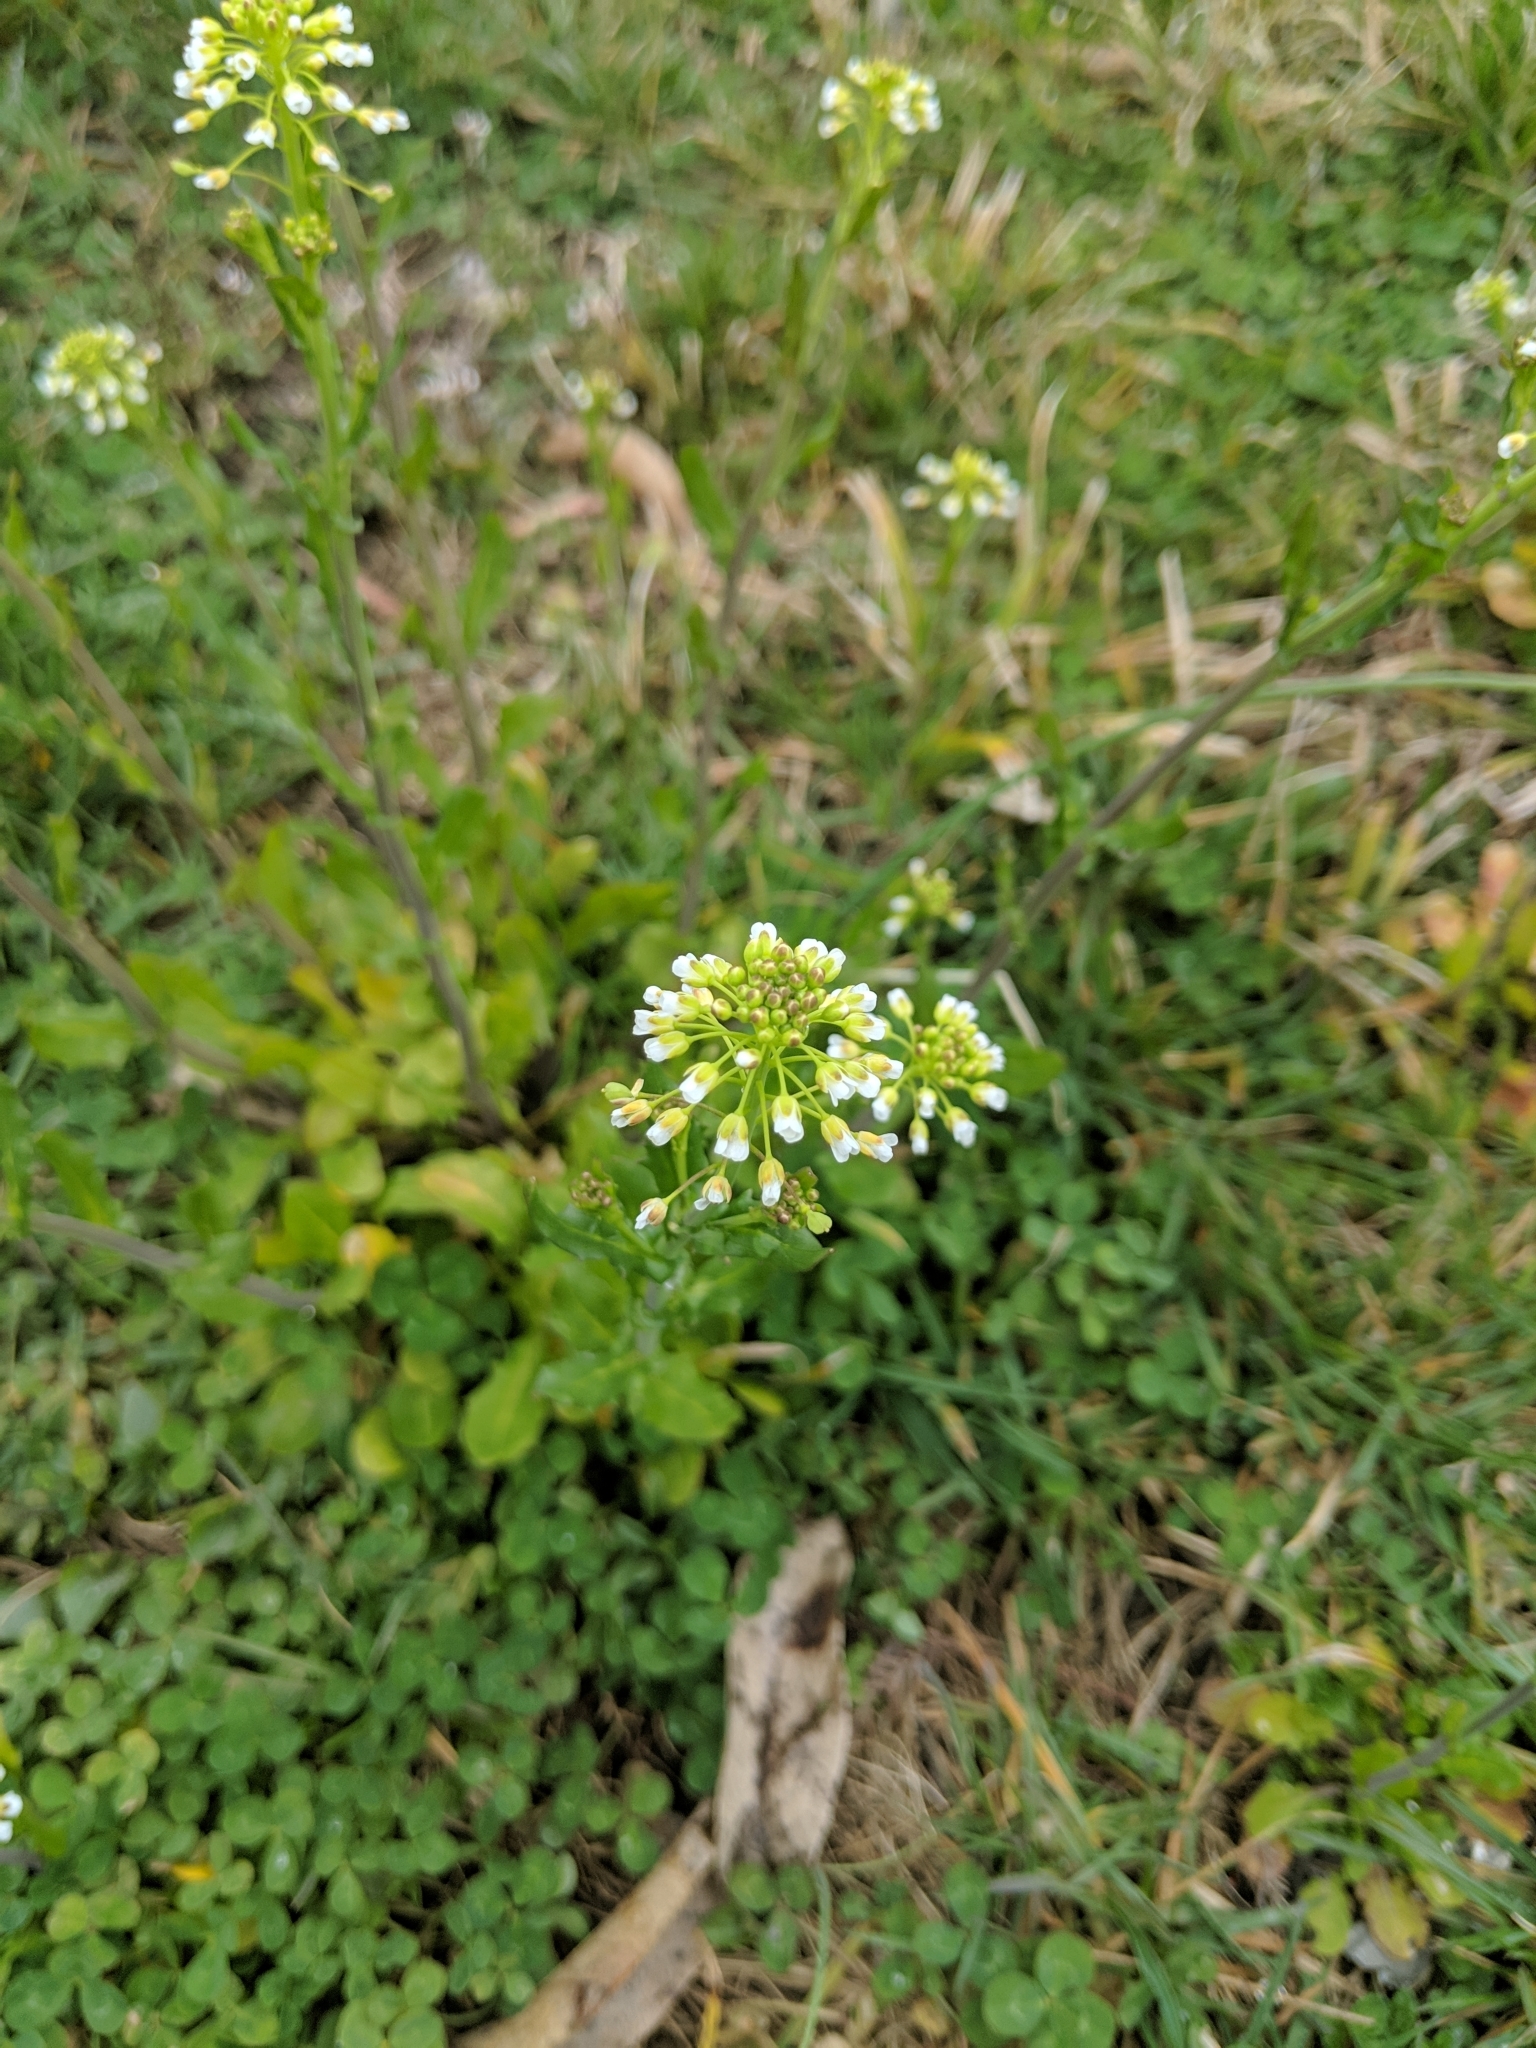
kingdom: Plantae
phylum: Tracheophyta
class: Magnoliopsida
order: Brassicales
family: Brassicaceae
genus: Mummenhoffia
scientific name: Mummenhoffia alliacea
